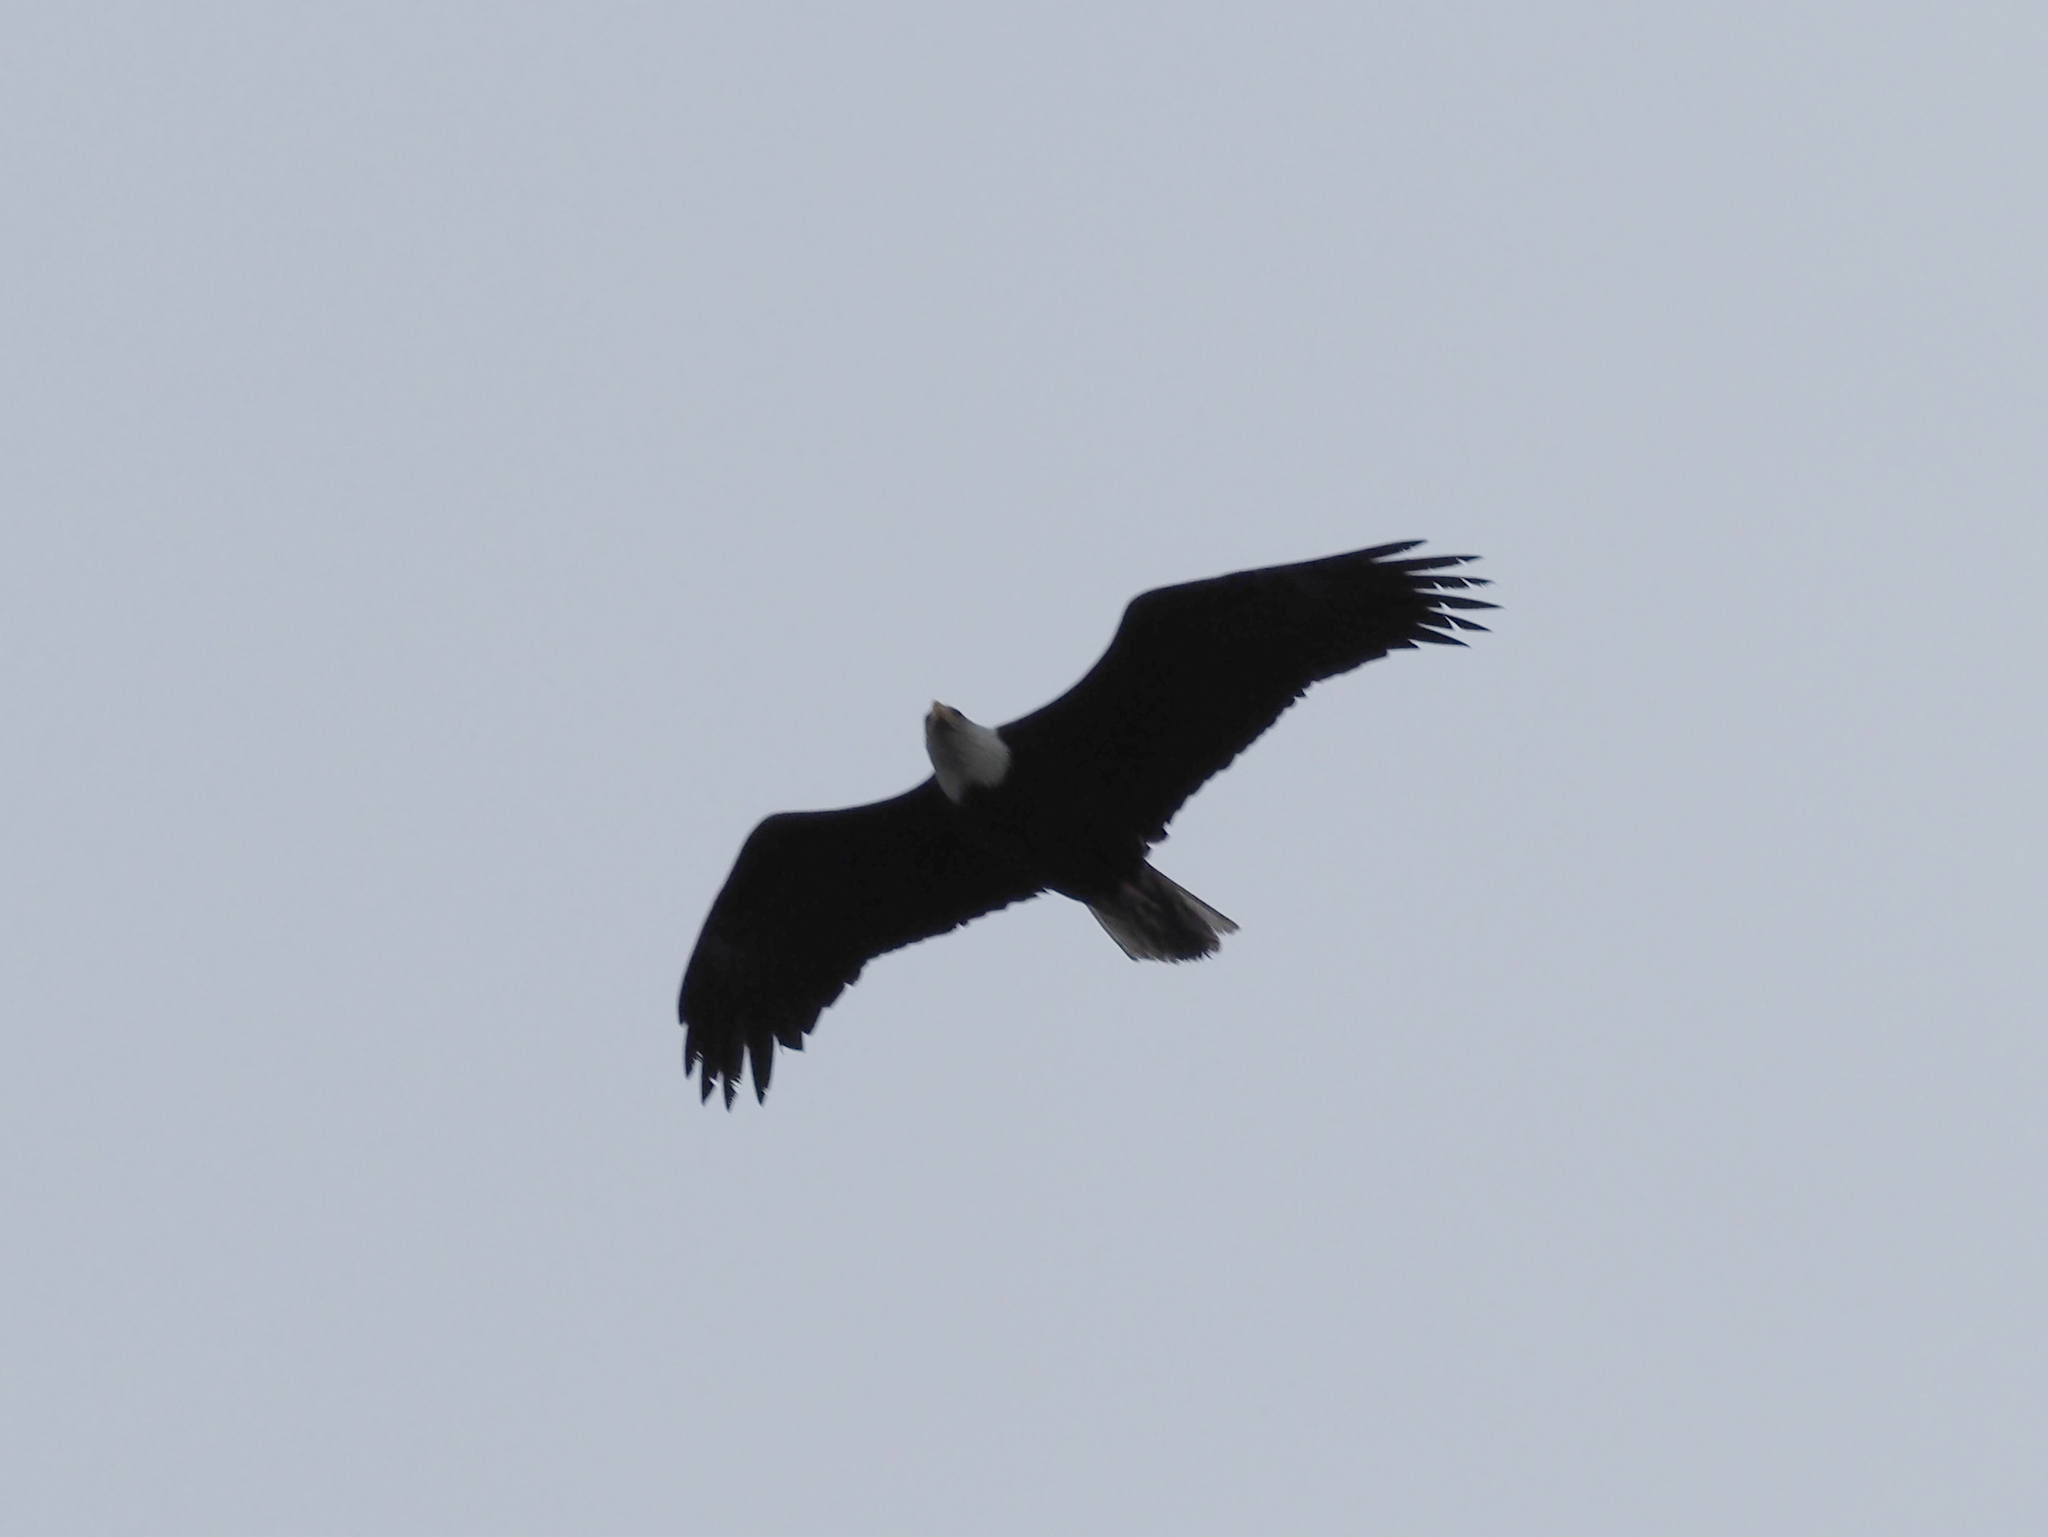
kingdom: Animalia
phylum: Chordata
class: Aves
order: Accipitriformes
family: Accipitridae
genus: Haliaeetus
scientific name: Haliaeetus leucocephalus
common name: Bald eagle
